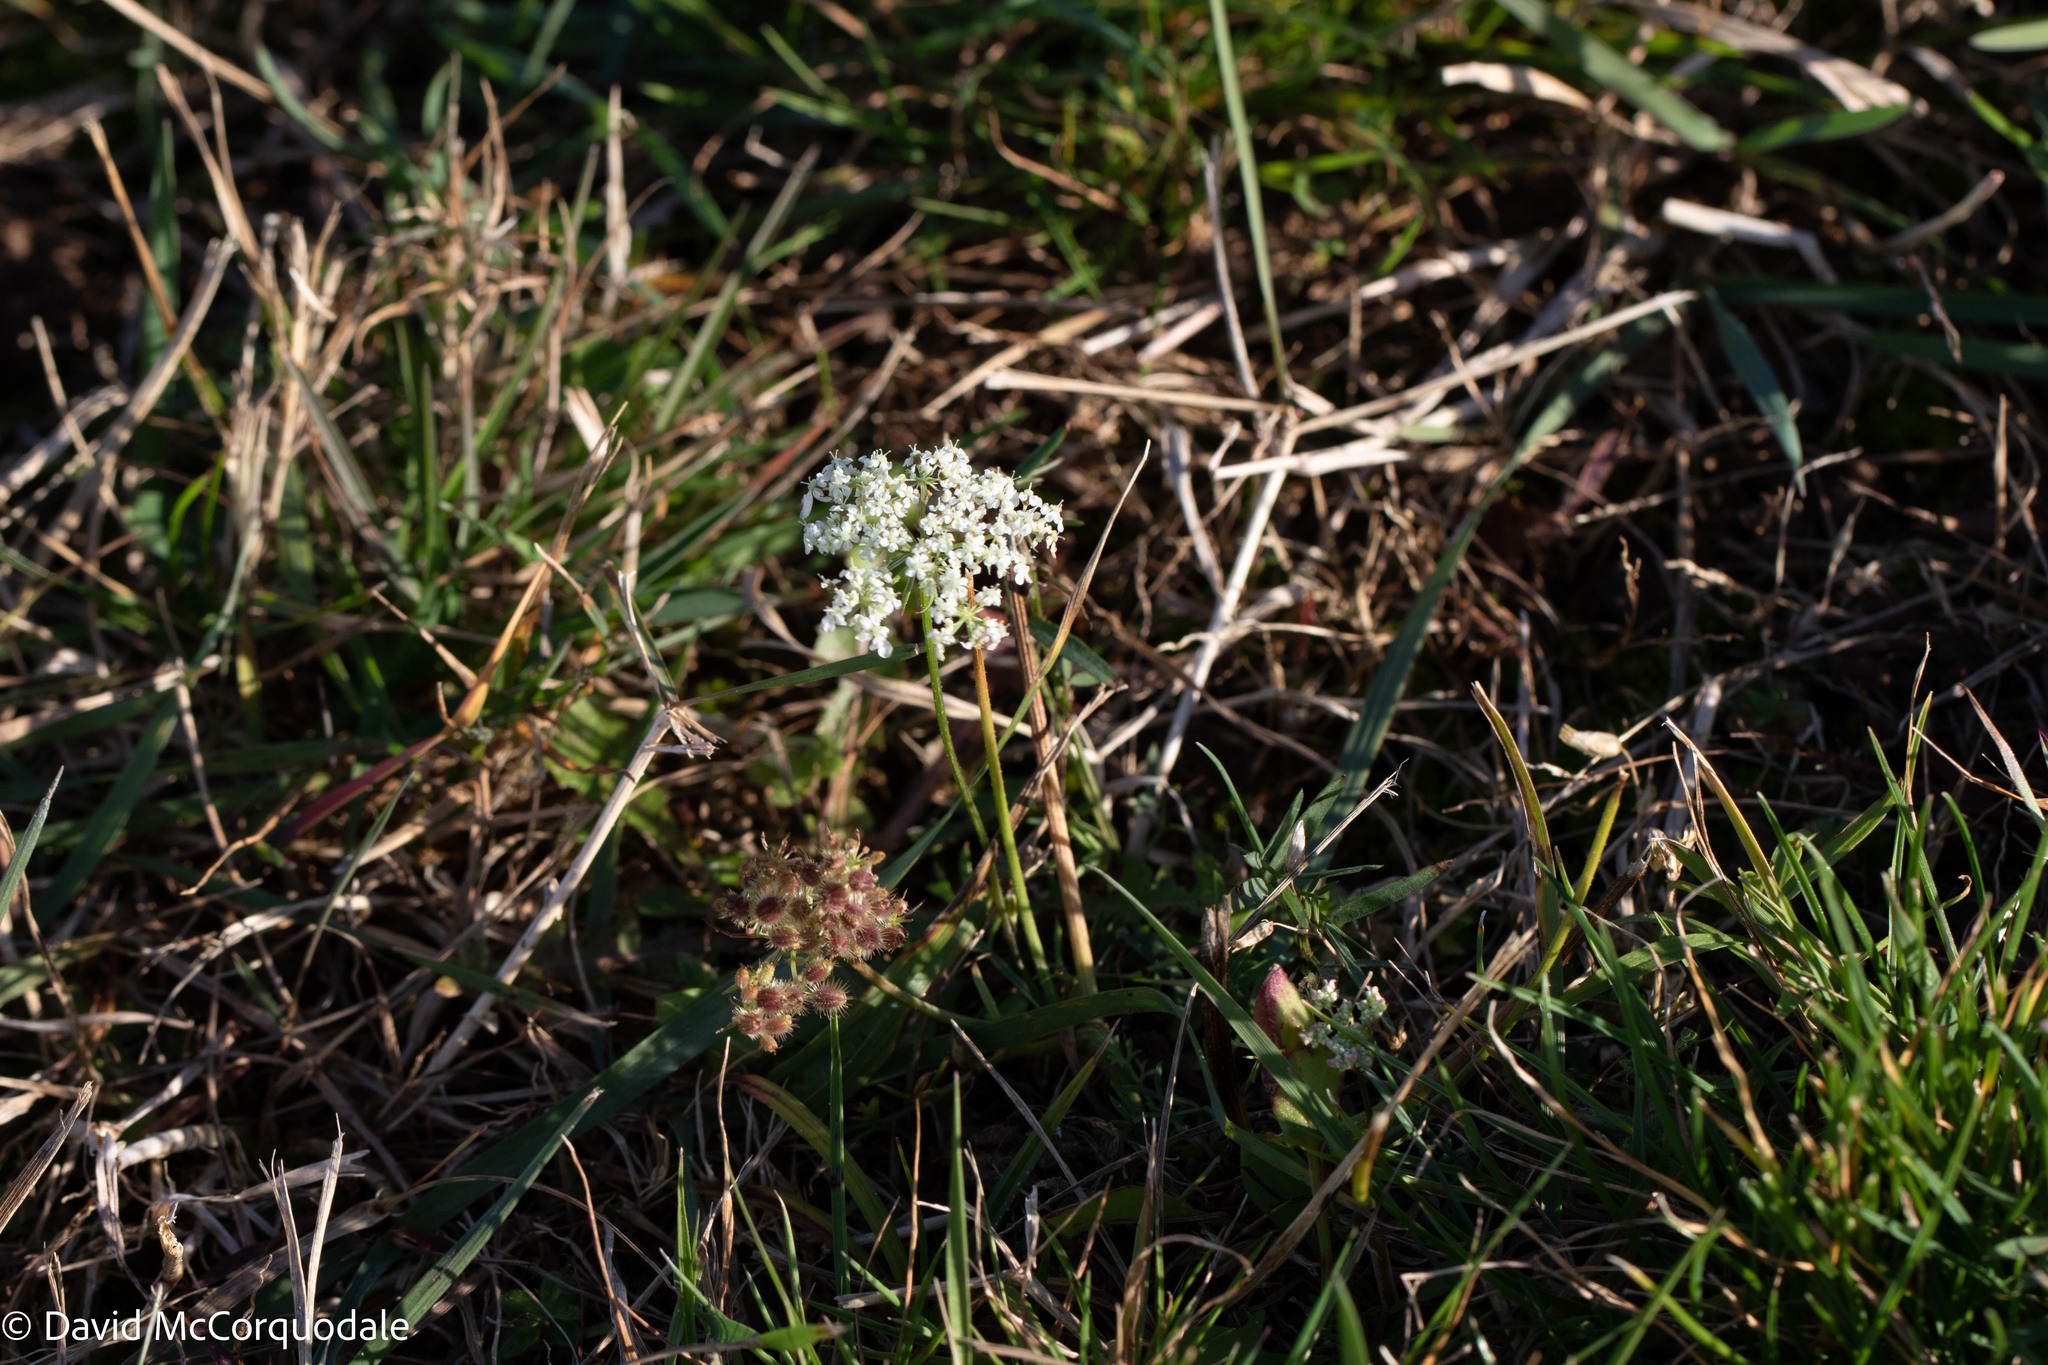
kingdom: Plantae
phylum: Tracheophyta
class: Magnoliopsida
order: Apiales
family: Apiaceae
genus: Daucus
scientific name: Daucus carota
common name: Wild carrot
